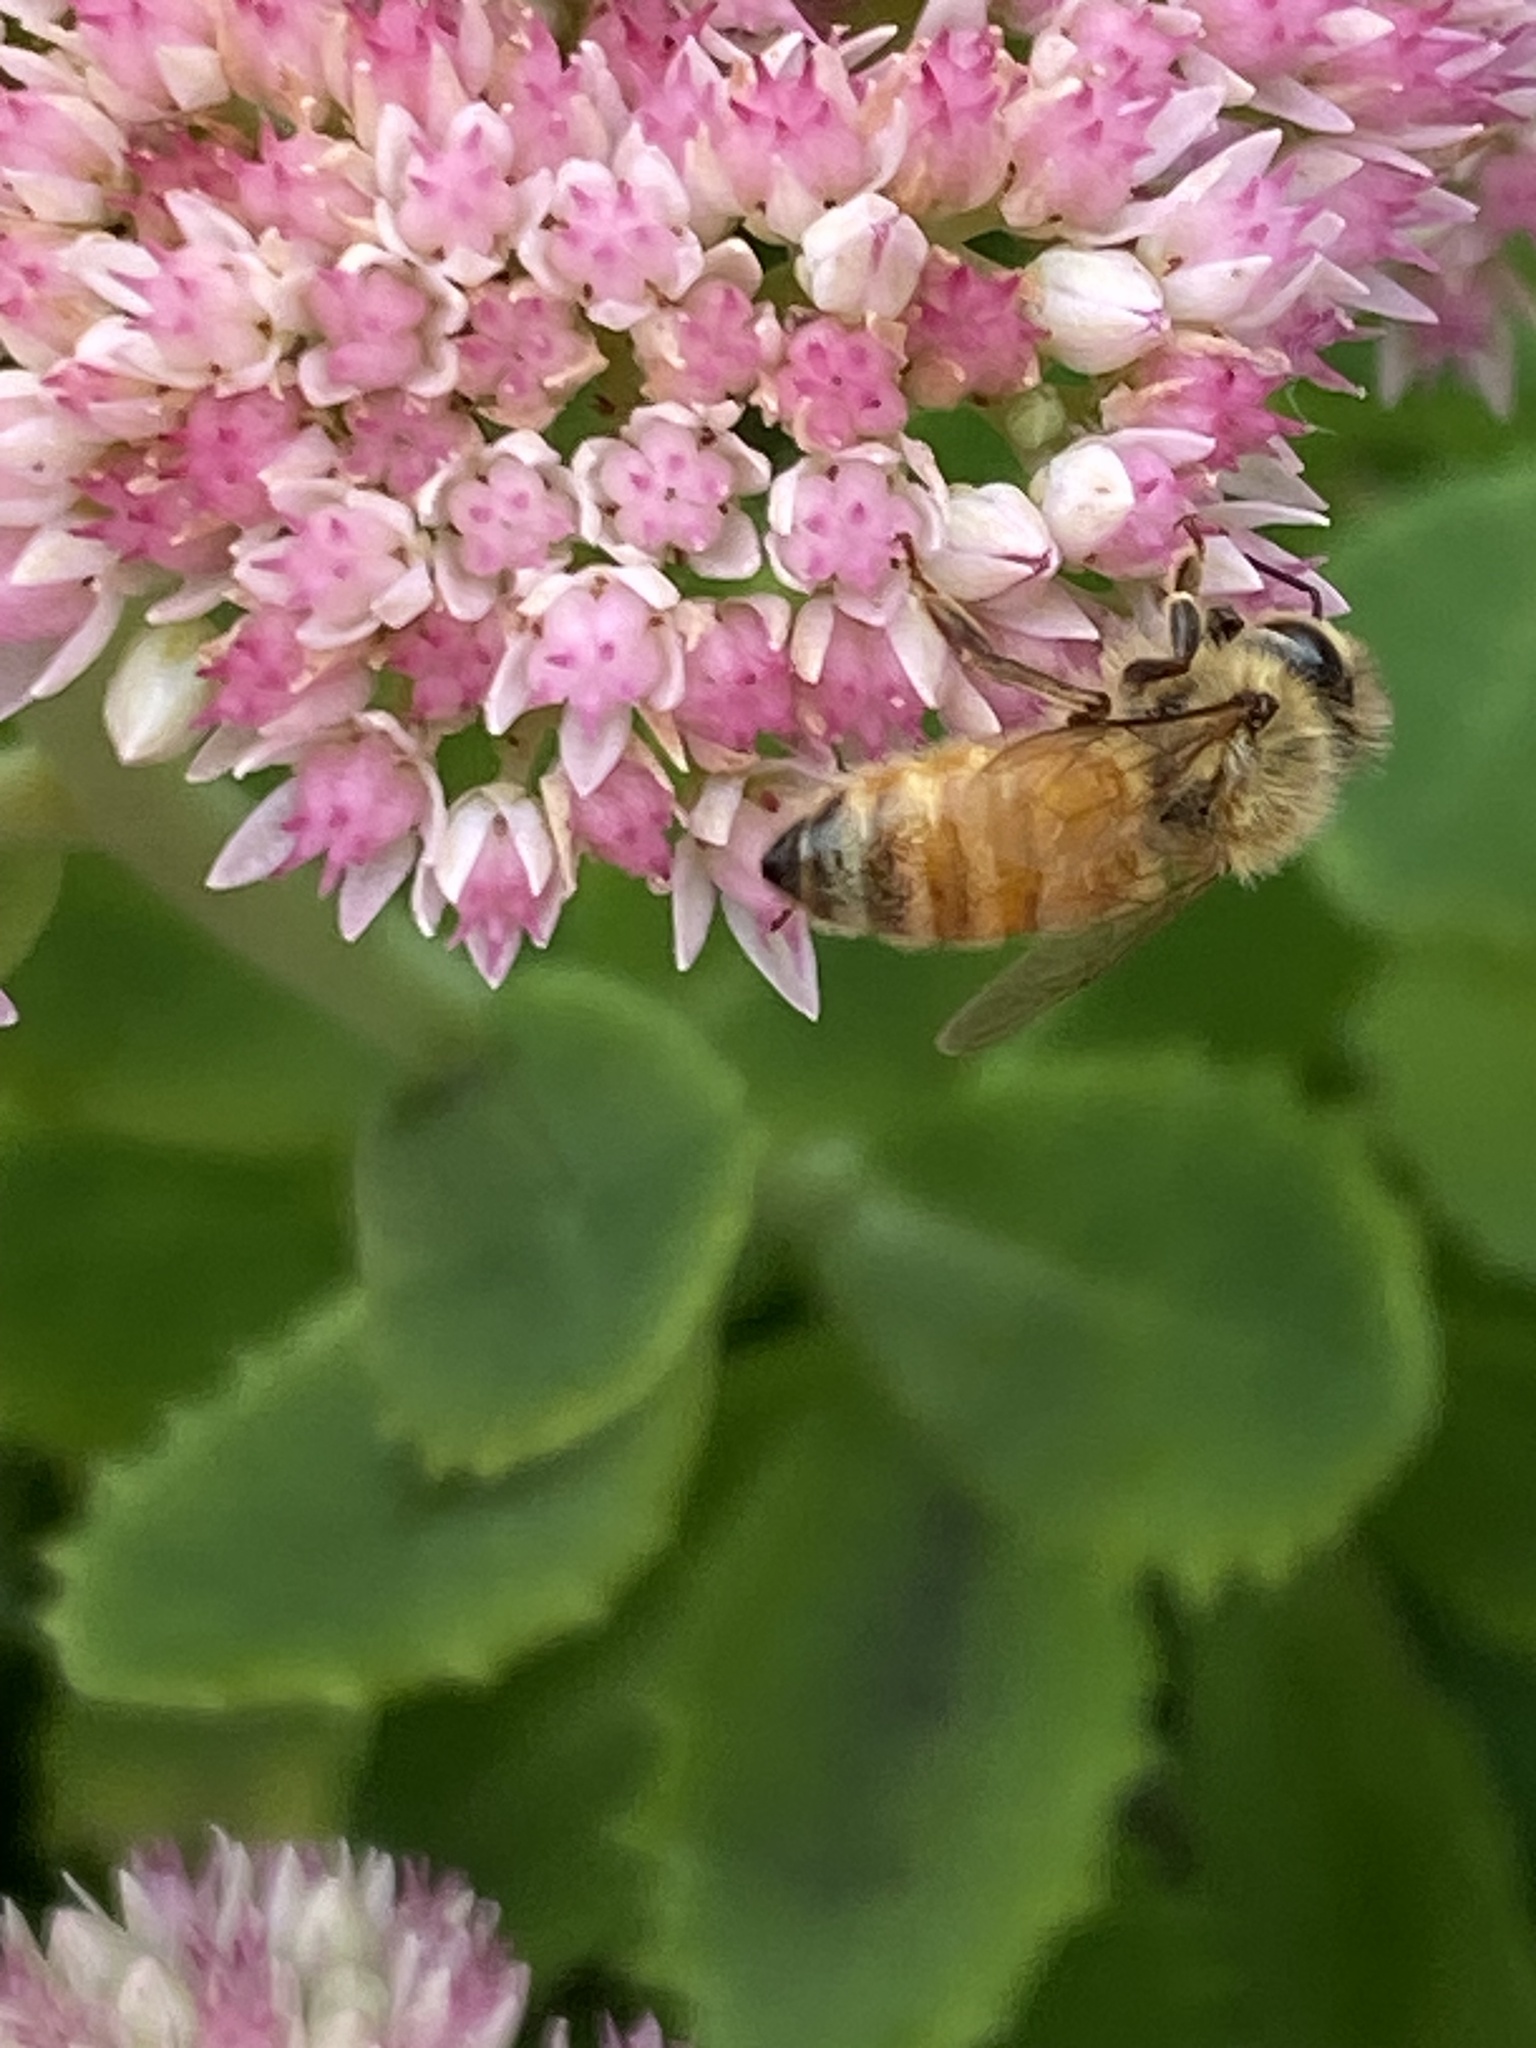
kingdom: Animalia
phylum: Arthropoda
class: Insecta
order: Hymenoptera
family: Apidae
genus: Apis
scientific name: Apis mellifera
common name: Honey bee
